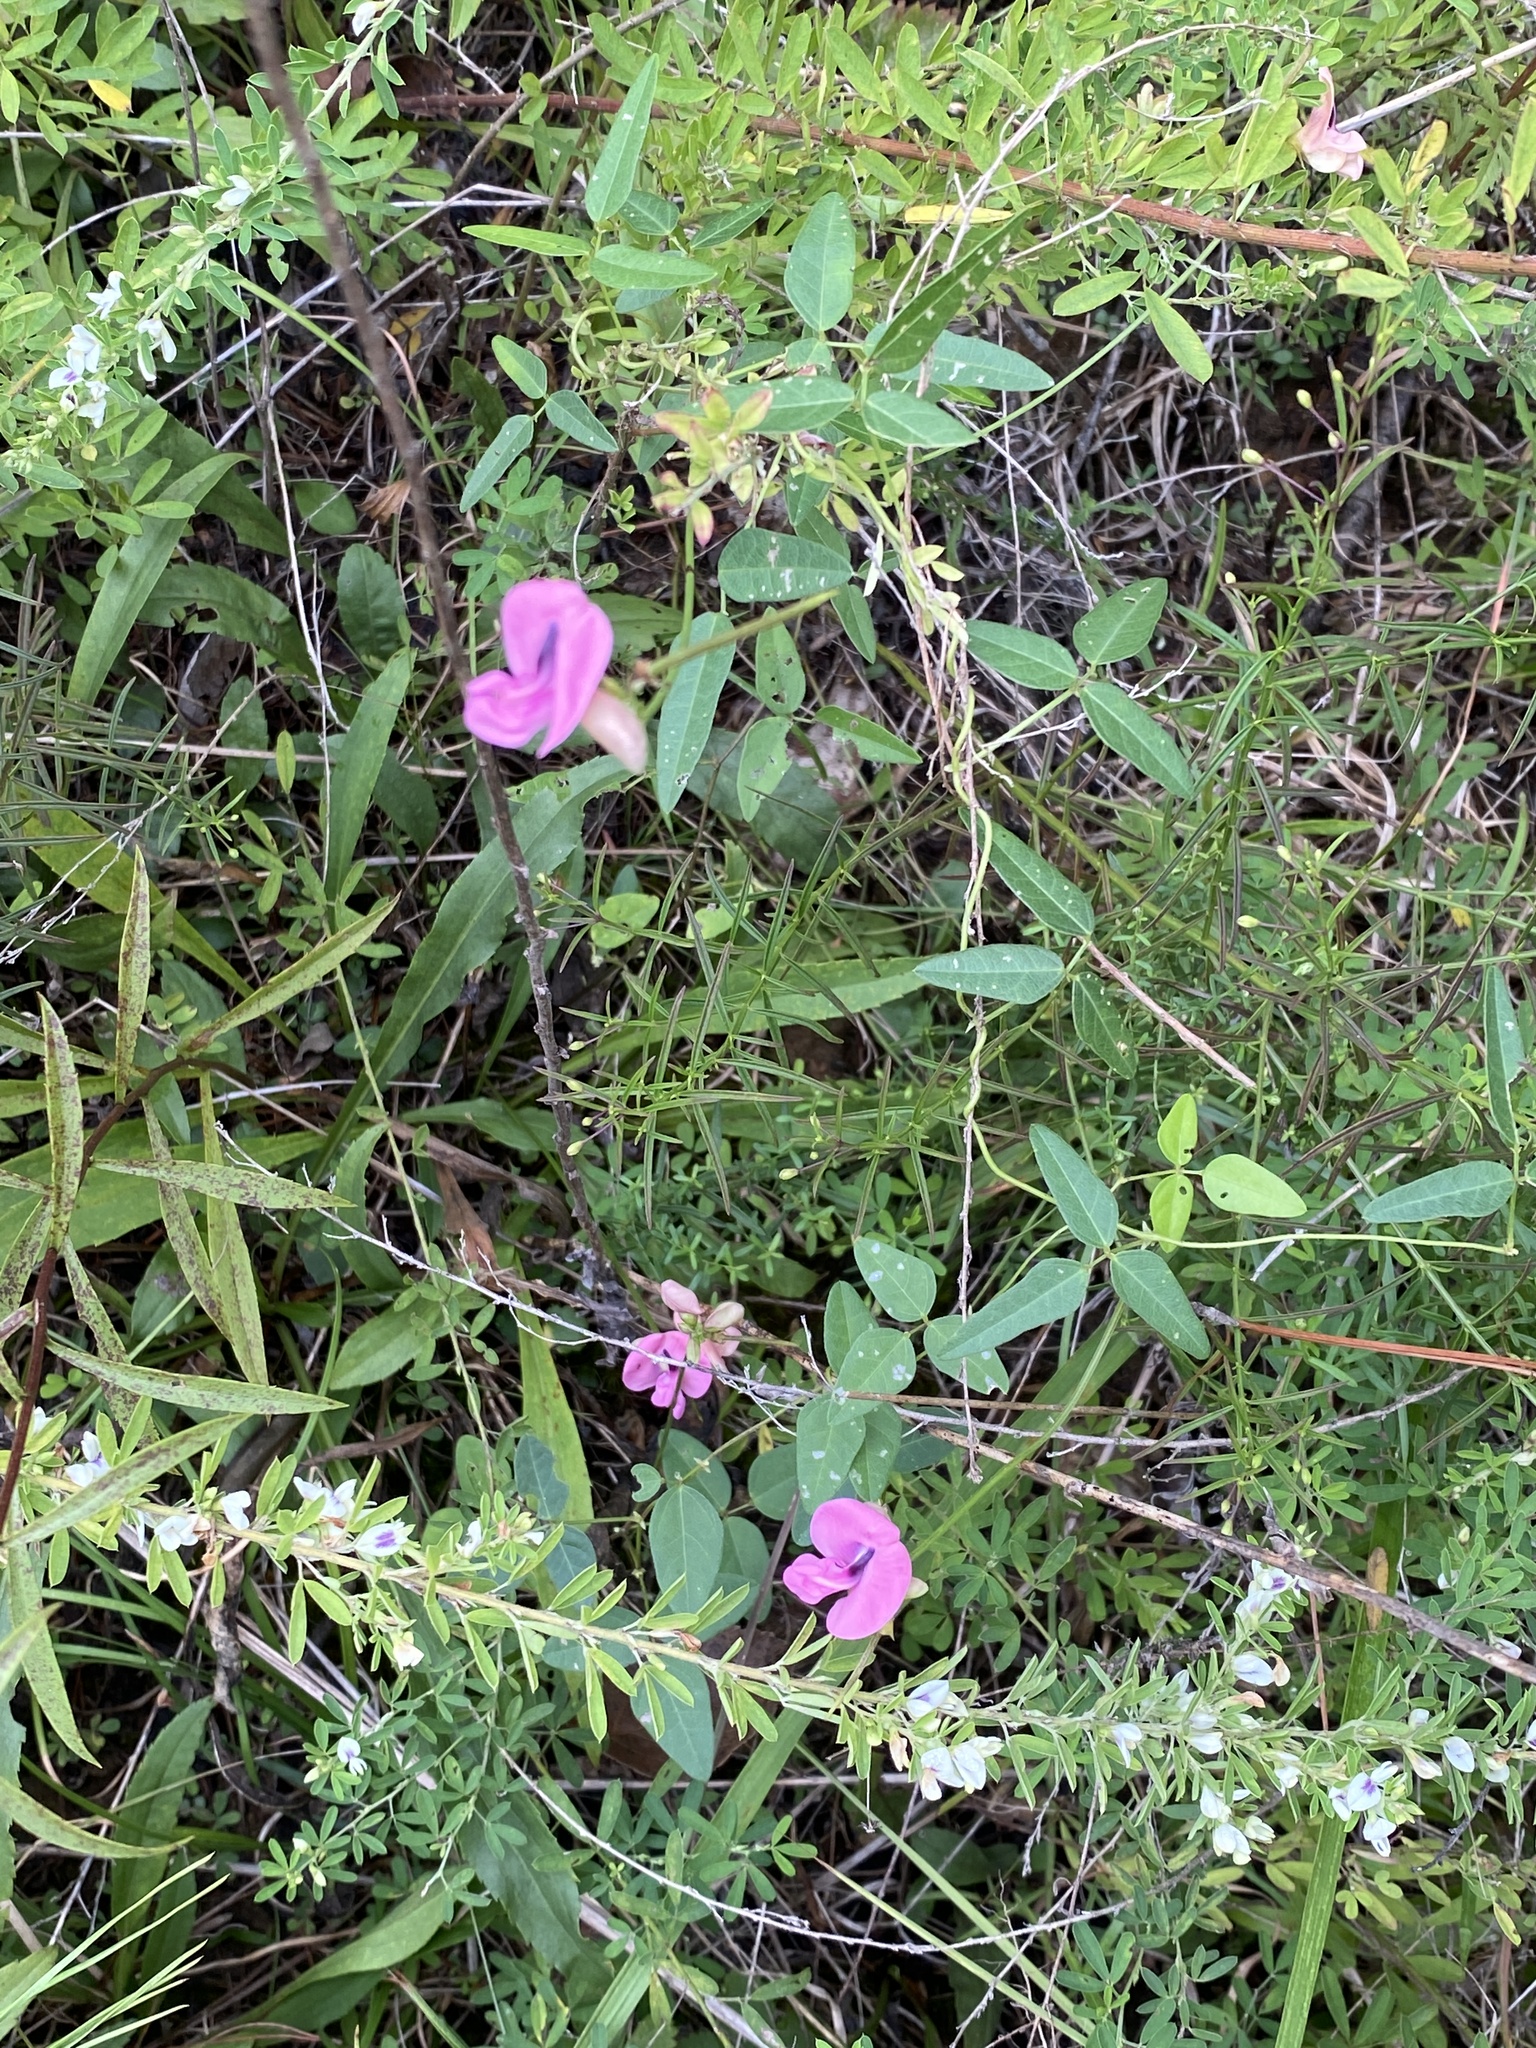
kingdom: Plantae
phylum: Tracheophyta
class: Magnoliopsida
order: Fabales
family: Fabaceae
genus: Strophostyles
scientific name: Strophostyles umbellata
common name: Perennial wild bean
